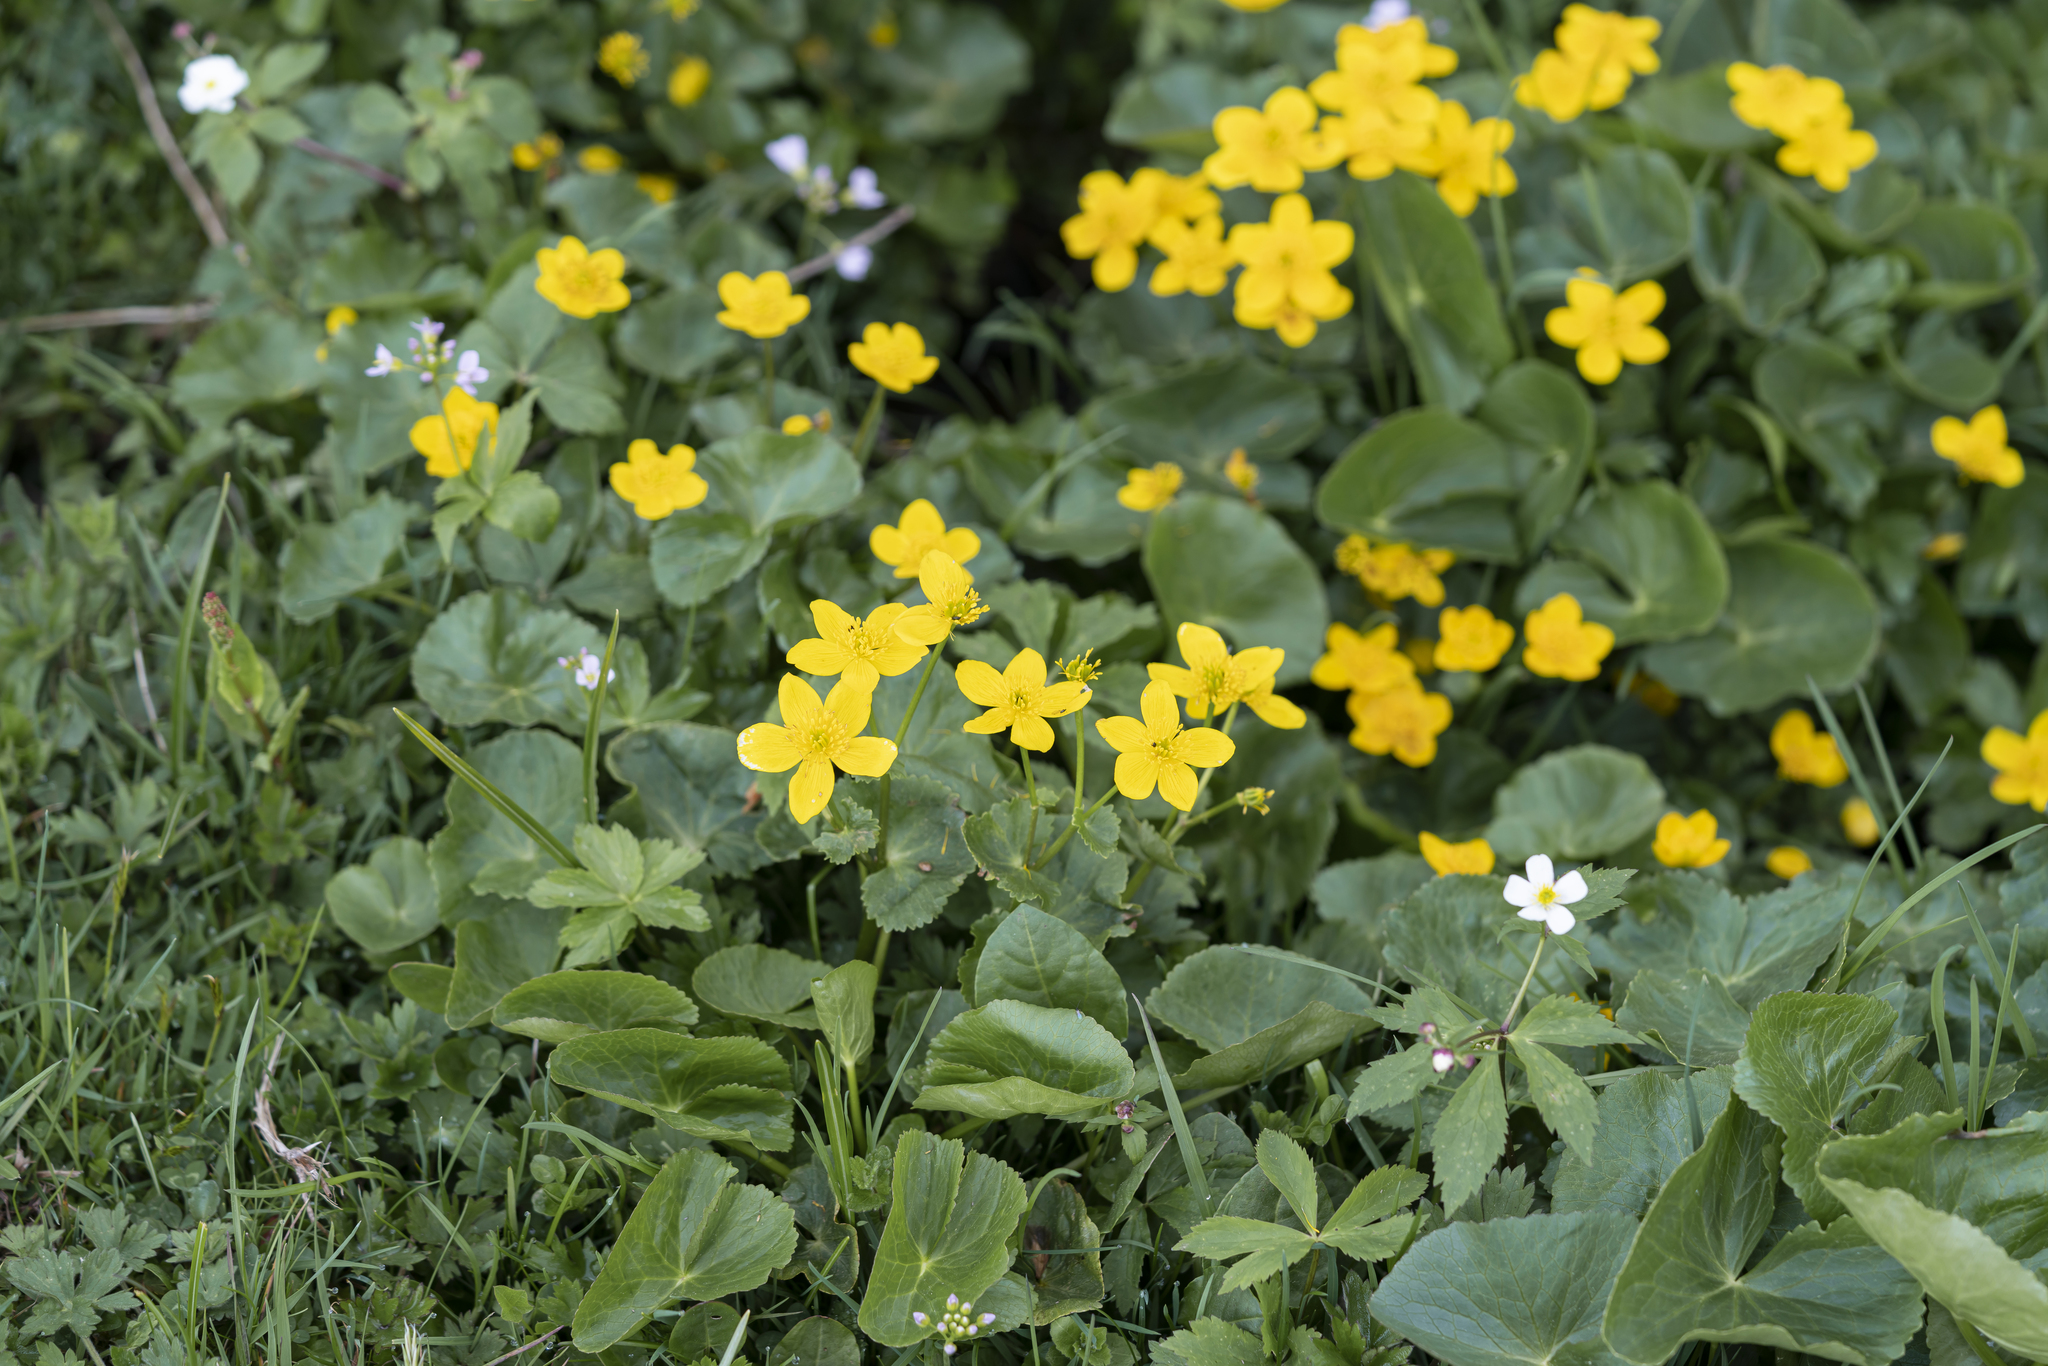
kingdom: Plantae
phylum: Tracheophyta
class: Magnoliopsida
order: Ranunculales
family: Ranunculaceae
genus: Caltha
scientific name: Caltha palustris
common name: Marsh marigold
